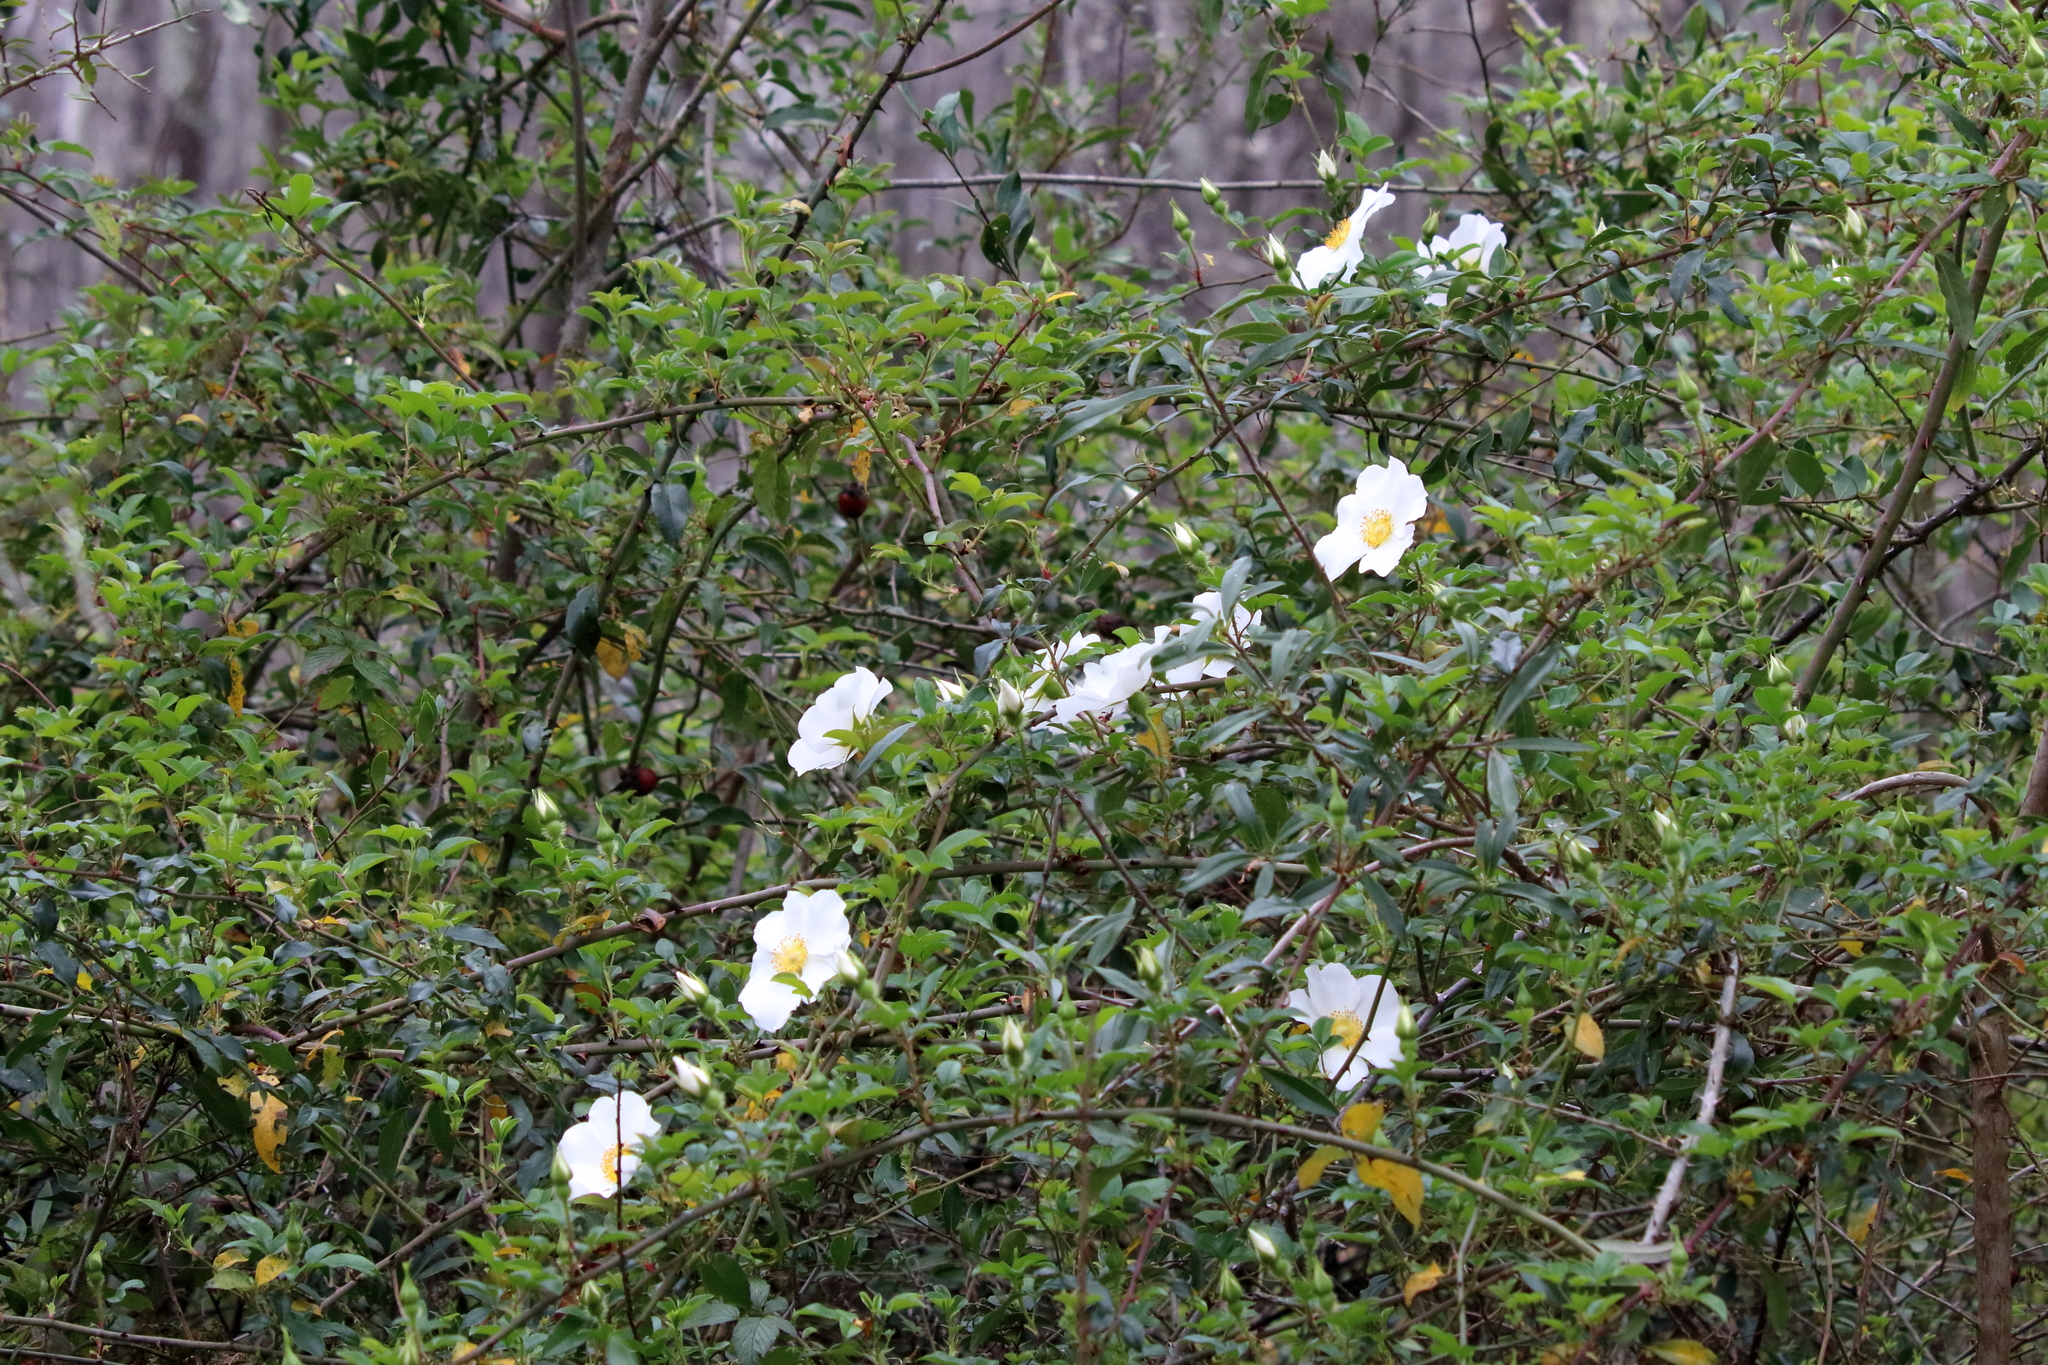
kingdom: Plantae
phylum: Tracheophyta
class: Magnoliopsida
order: Rosales
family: Rosaceae
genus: Rosa
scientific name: Rosa laevigata
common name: Cherokee rose
